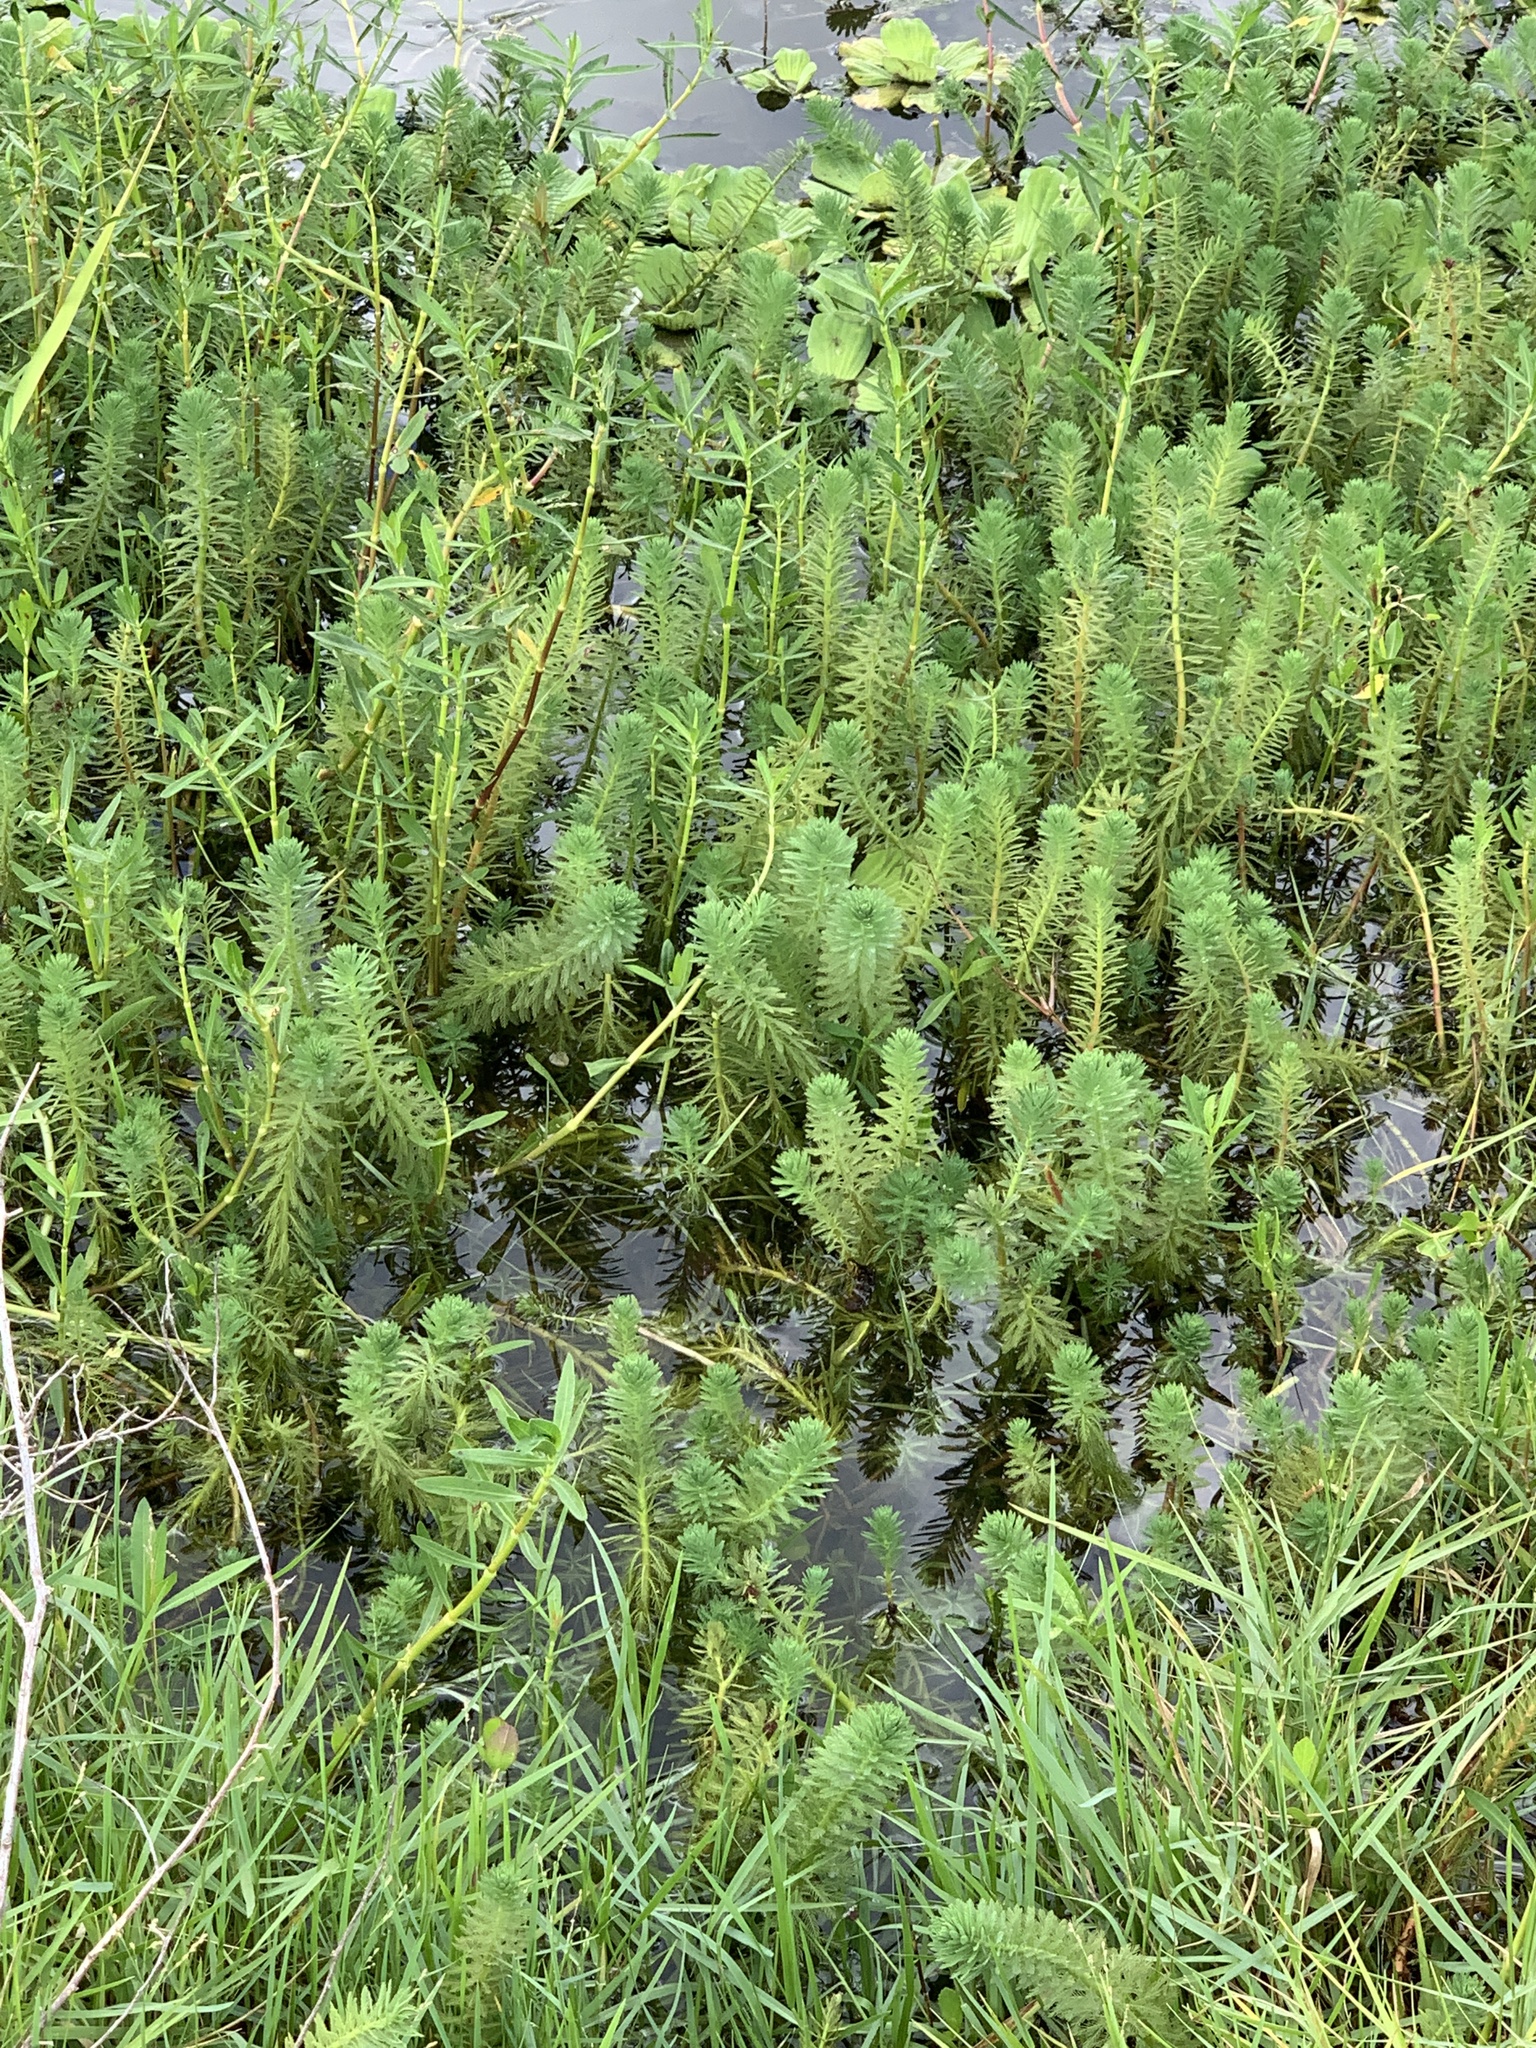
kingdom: Plantae
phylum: Tracheophyta
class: Magnoliopsida
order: Saxifragales
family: Haloragaceae
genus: Myriophyllum
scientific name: Myriophyllum aquaticum
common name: Parrot's feather
